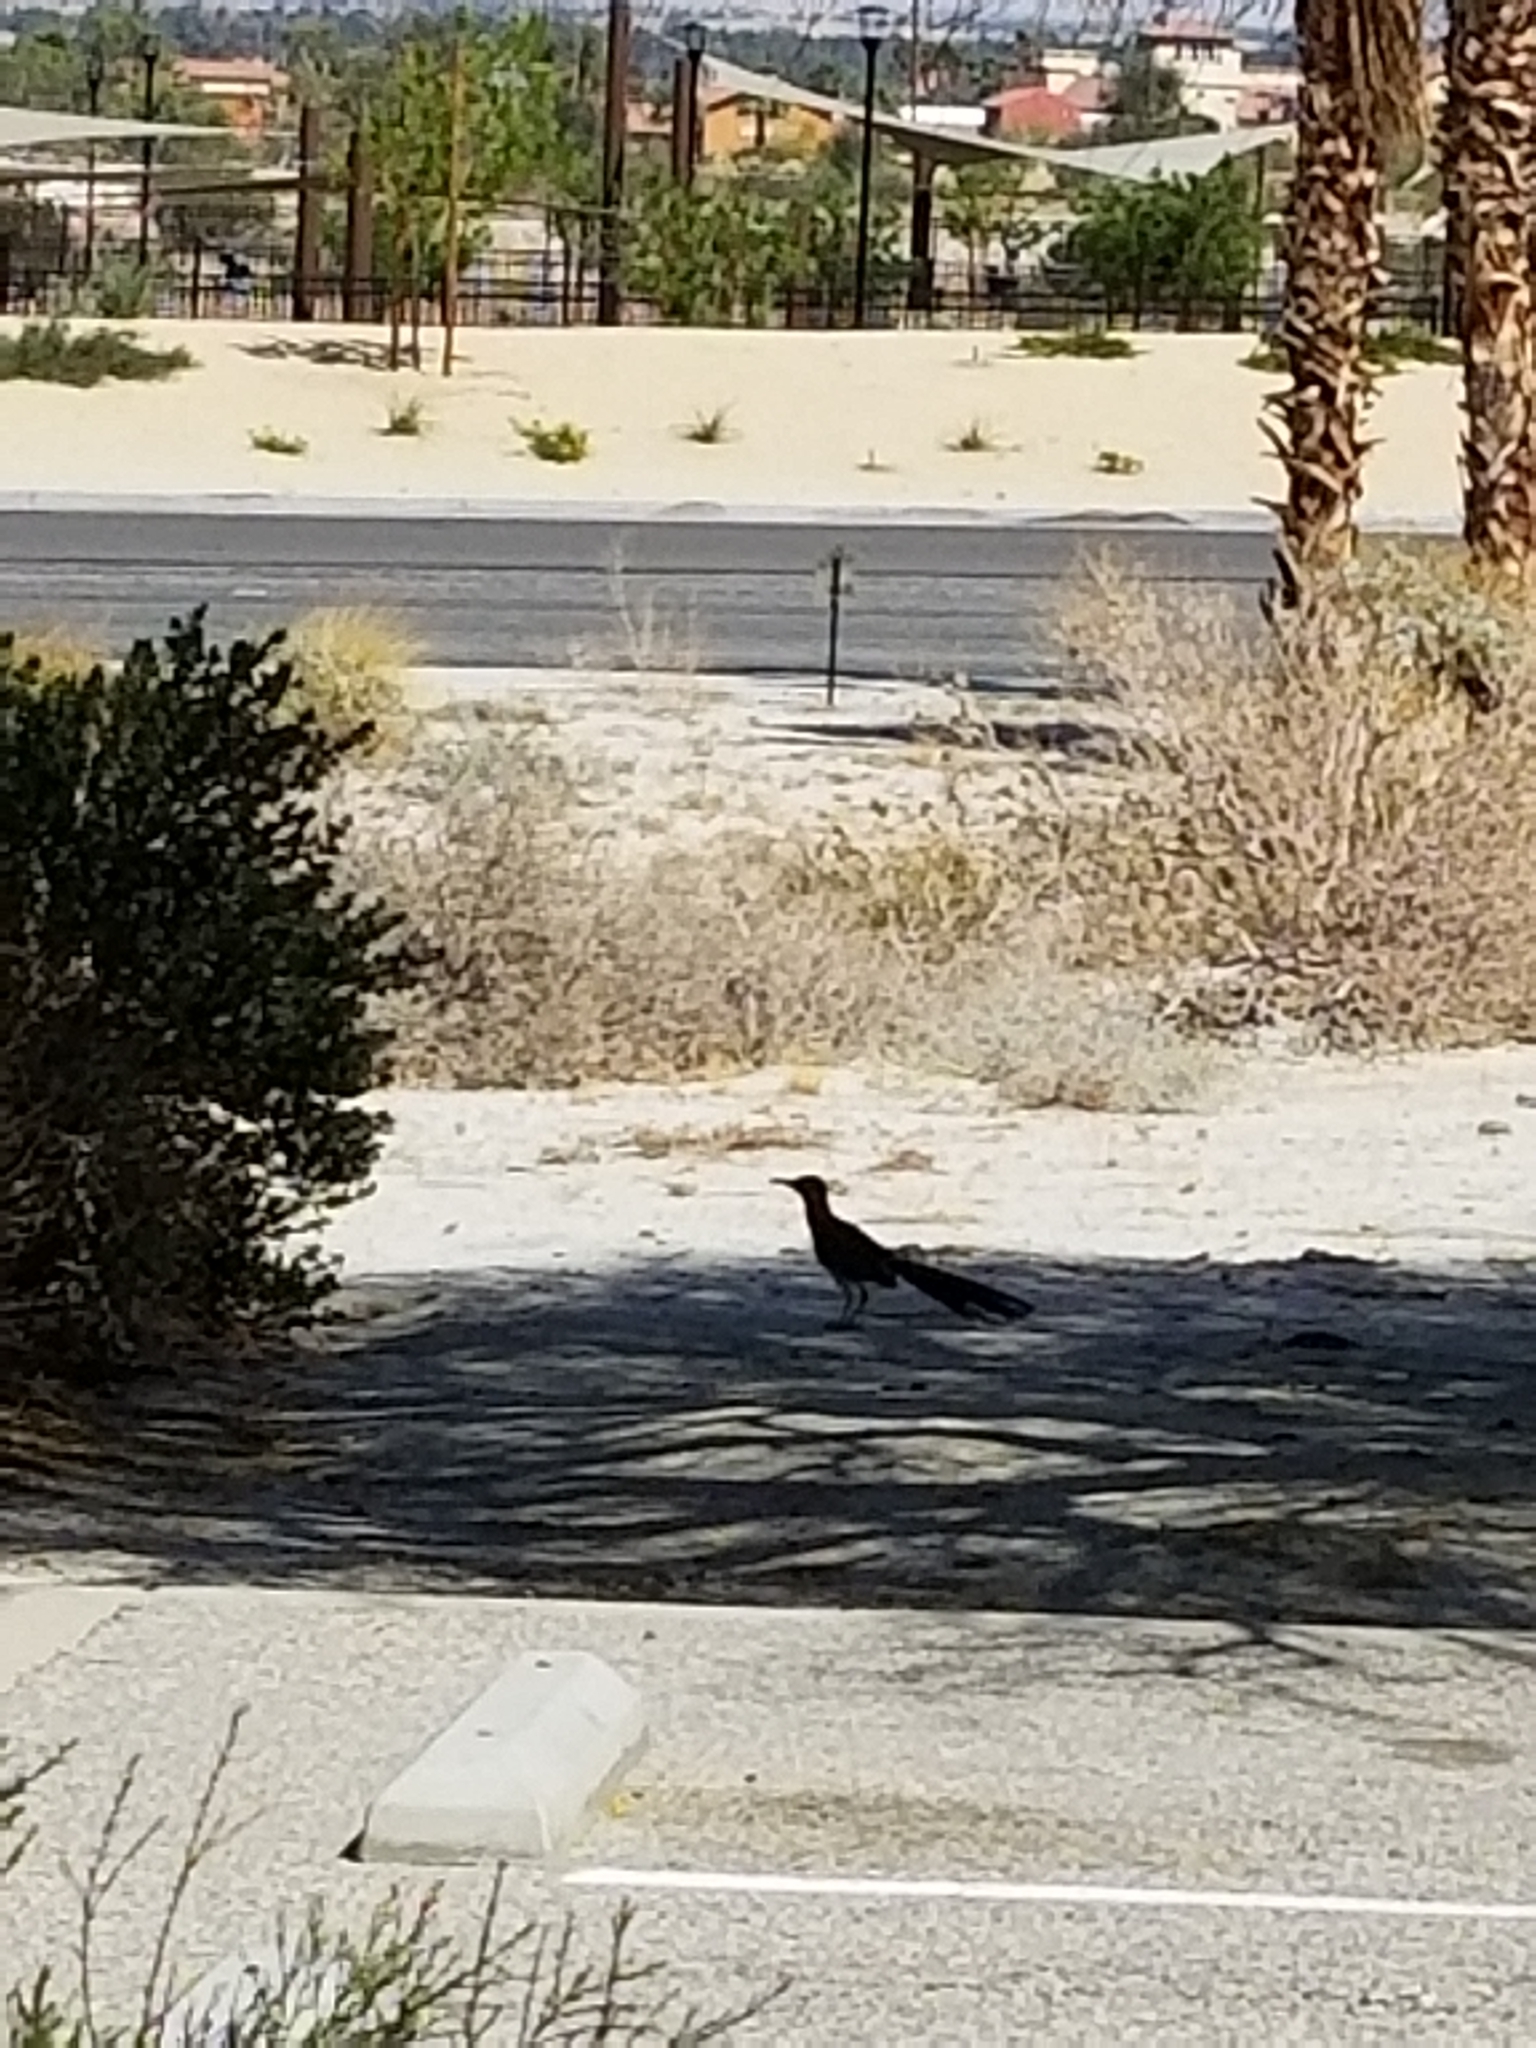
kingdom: Animalia
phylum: Chordata
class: Aves
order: Cuculiformes
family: Cuculidae
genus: Geococcyx
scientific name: Geococcyx californianus
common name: Greater roadrunner
